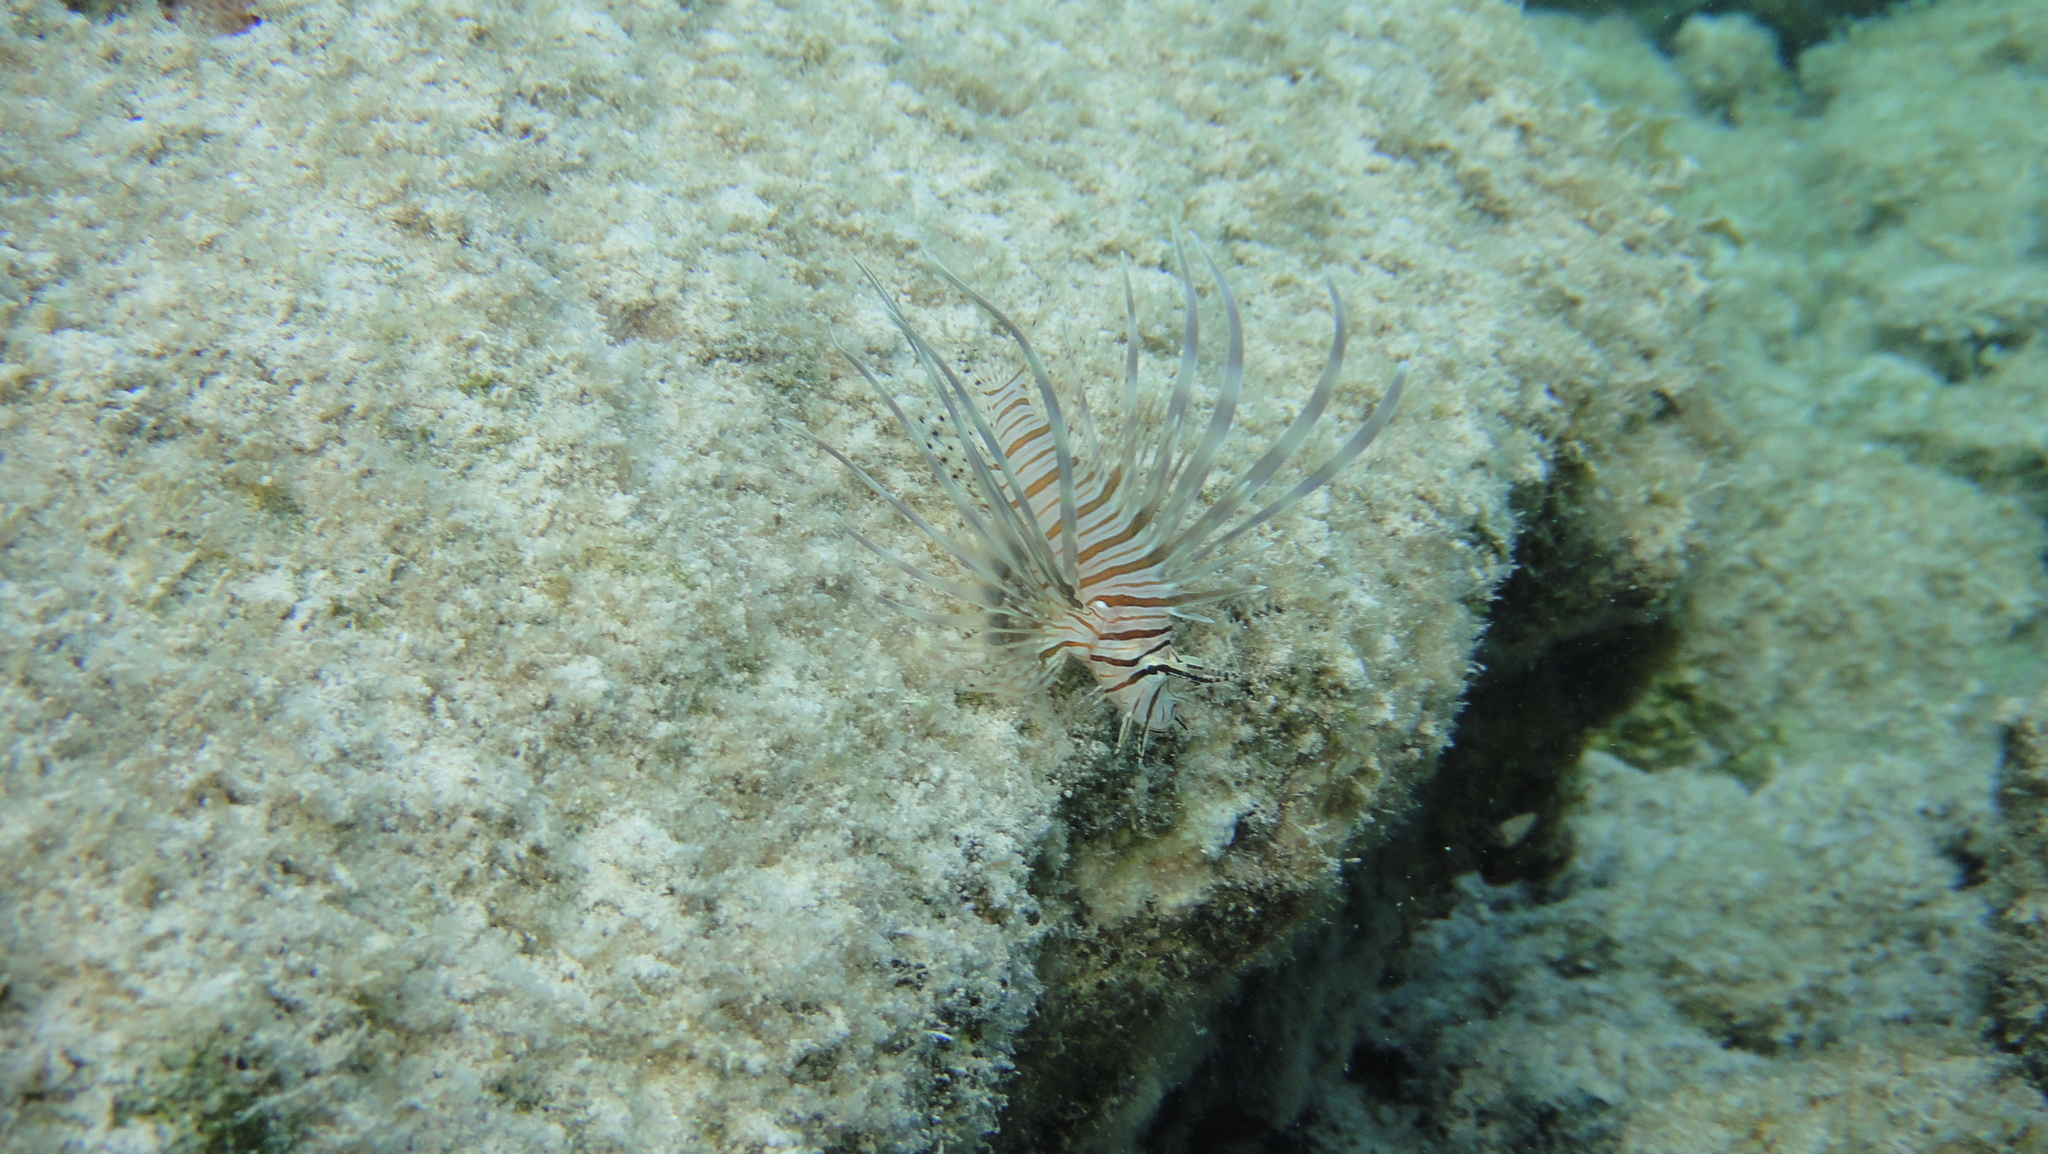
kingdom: Animalia
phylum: Chordata
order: Scorpaeniformes
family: Scorpaenidae
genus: Pterois
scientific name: Pterois volitans
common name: Lionfish
